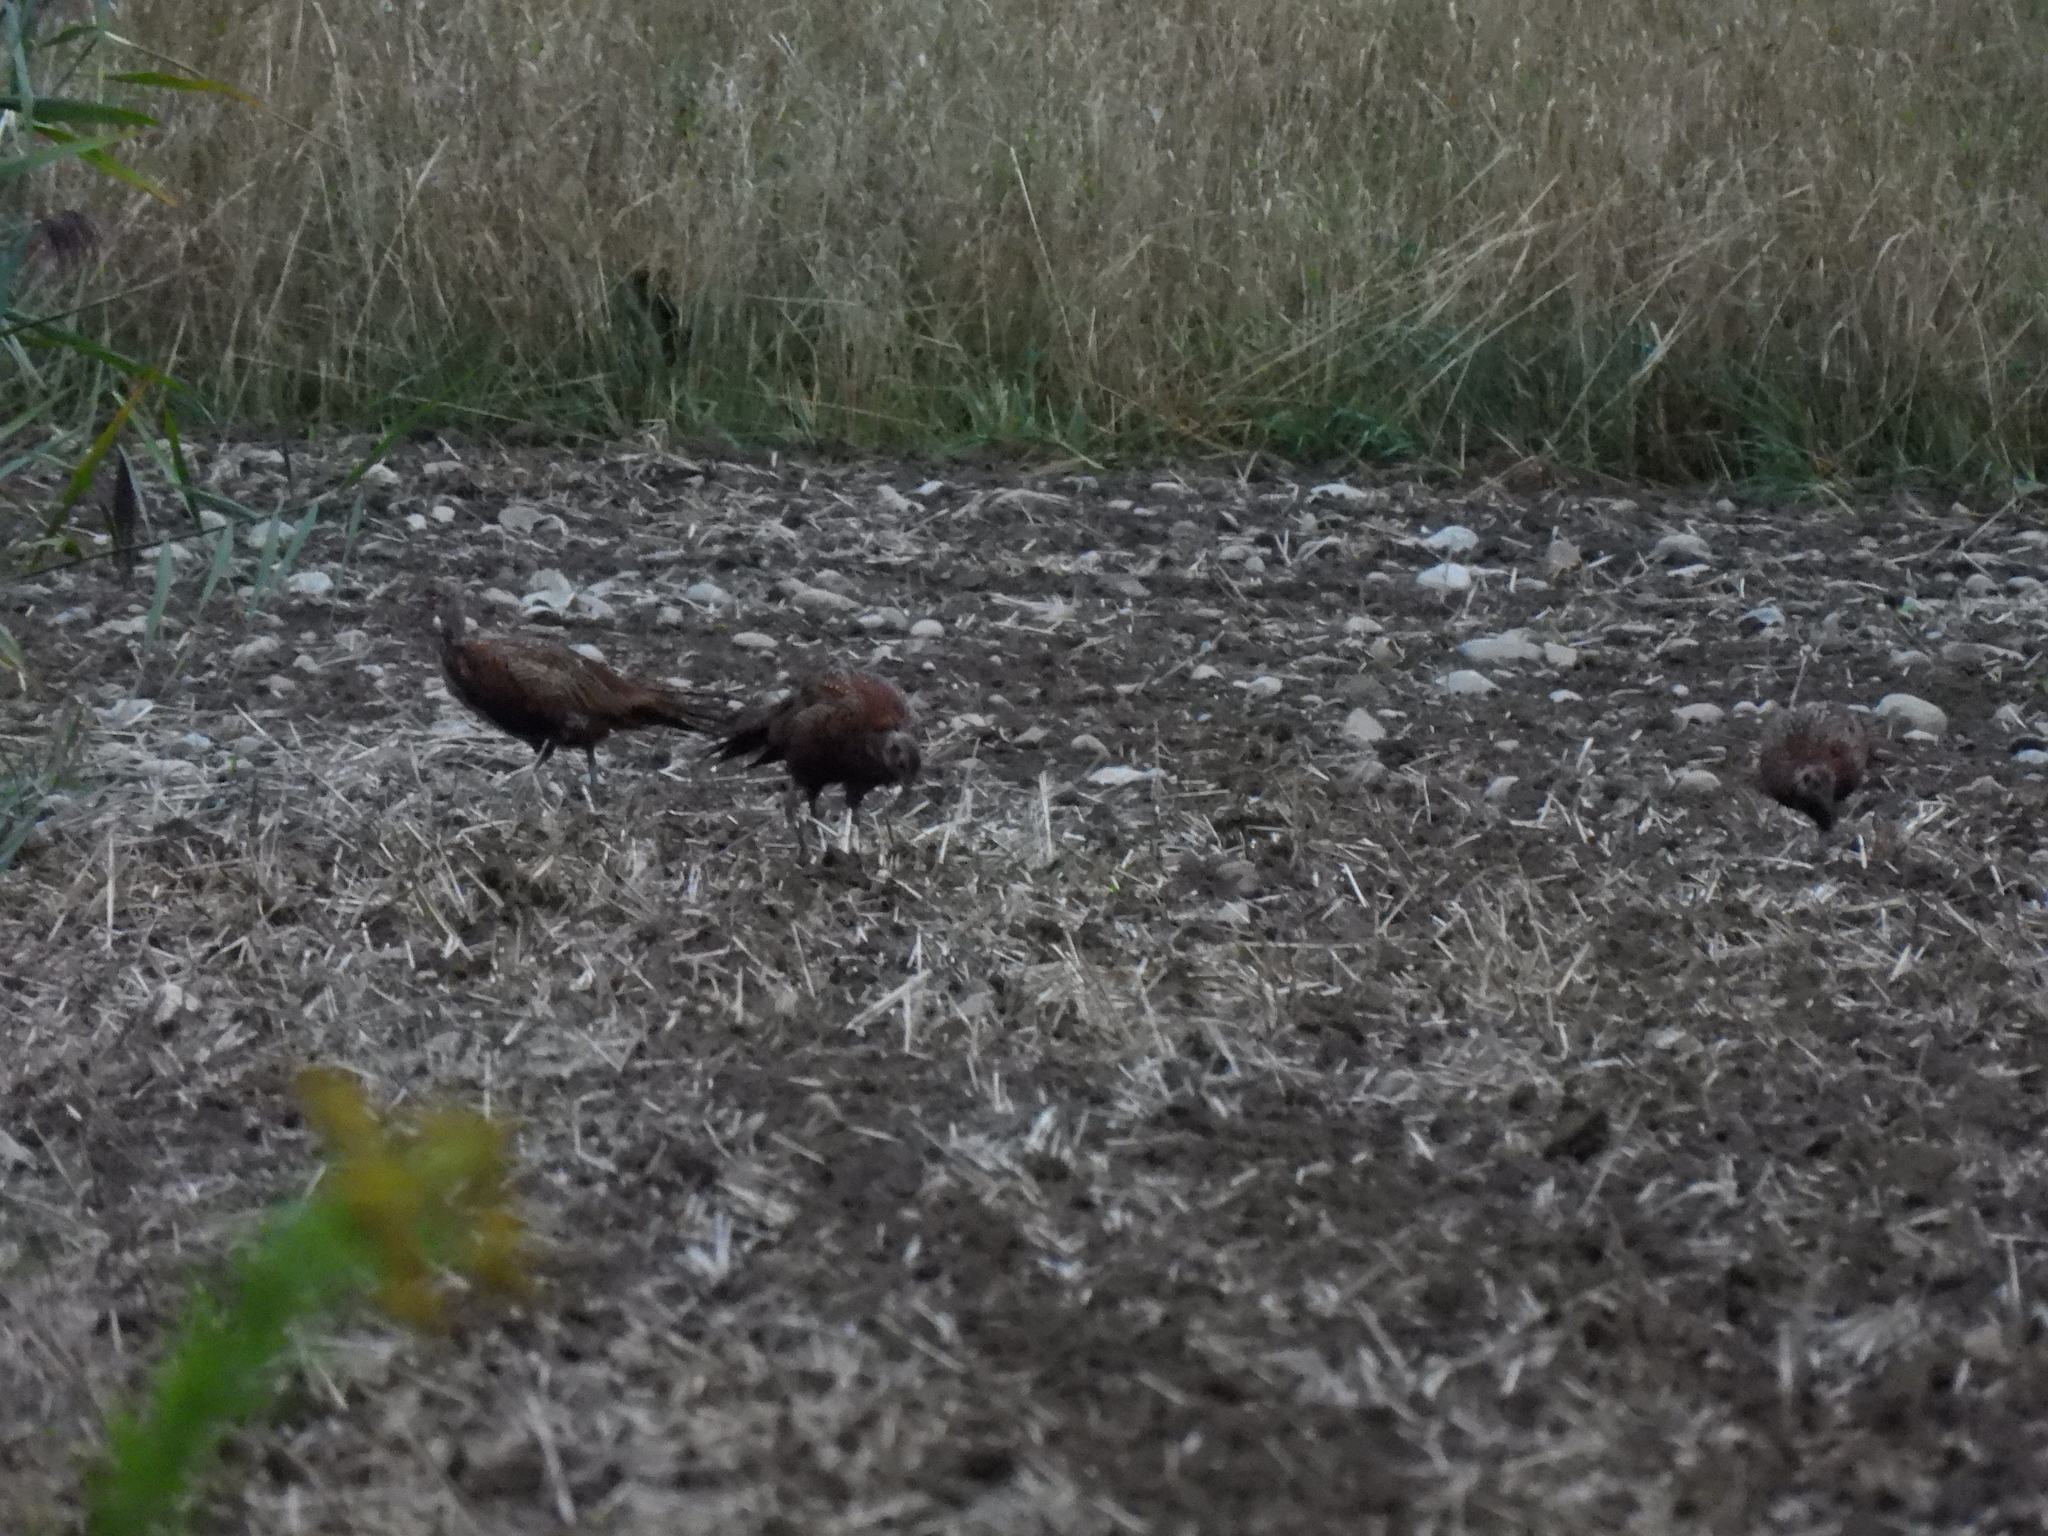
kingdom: Animalia
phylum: Chordata
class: Aves
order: Galliformes
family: Phasianidae
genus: Phasianus
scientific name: Phasianus colchicus
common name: Common pheasant
